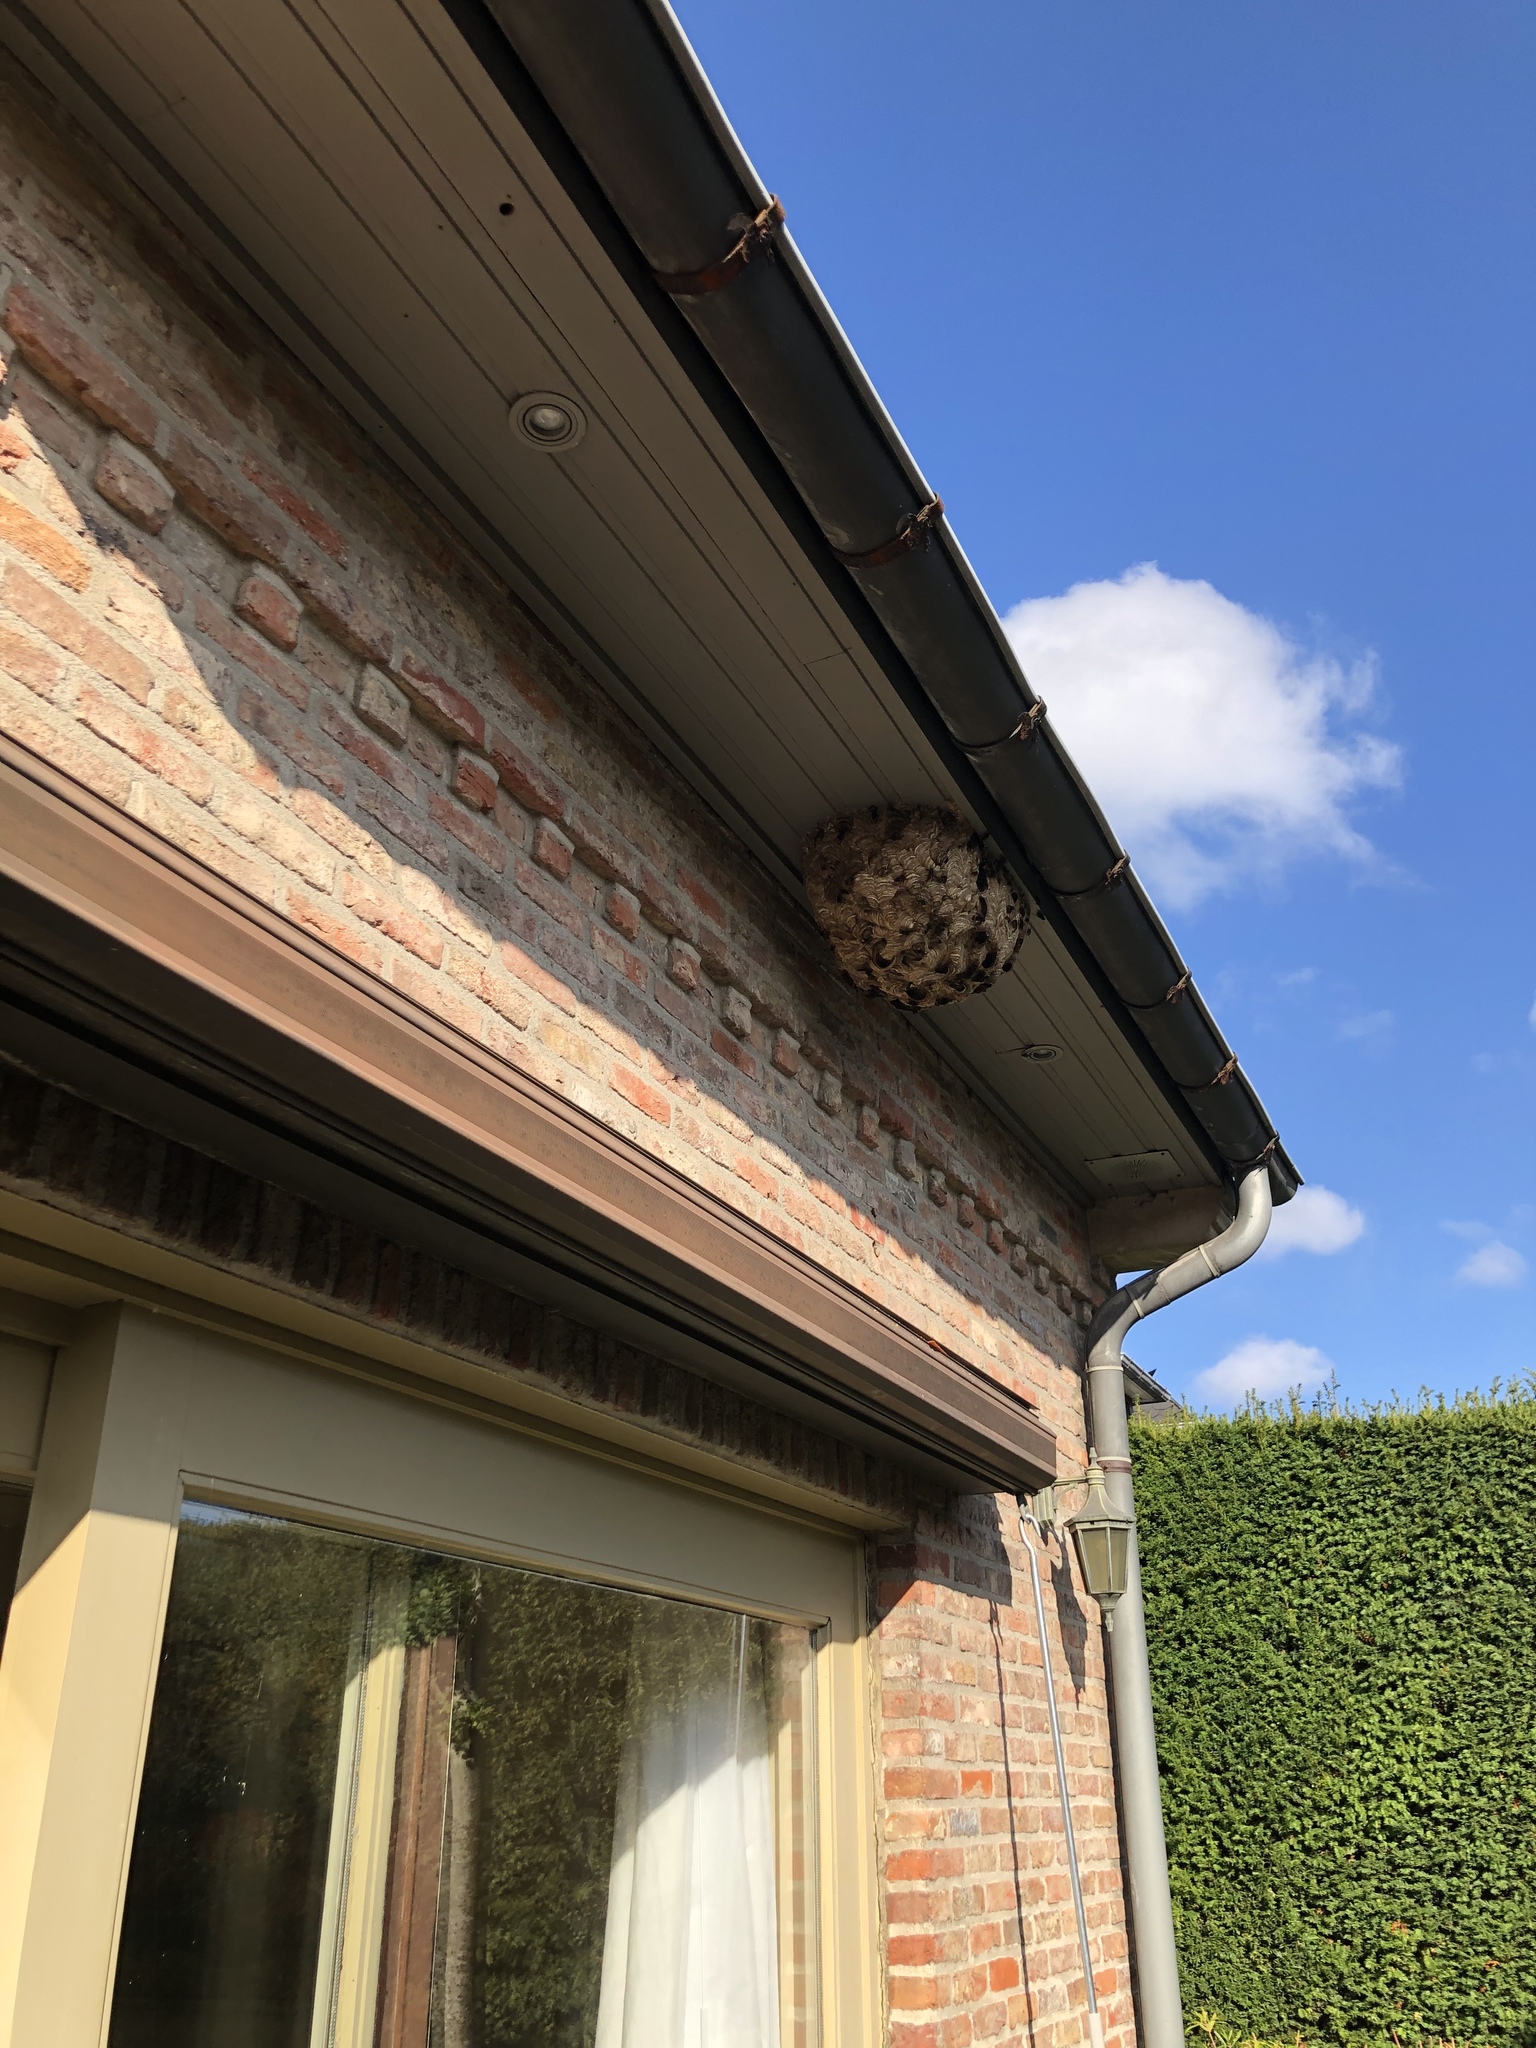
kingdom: Animalia
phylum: Arthropoda
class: Insecta
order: Hymenoptera
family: Vespidae
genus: Vespa
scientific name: Vespa velutina
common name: Asian hornet
